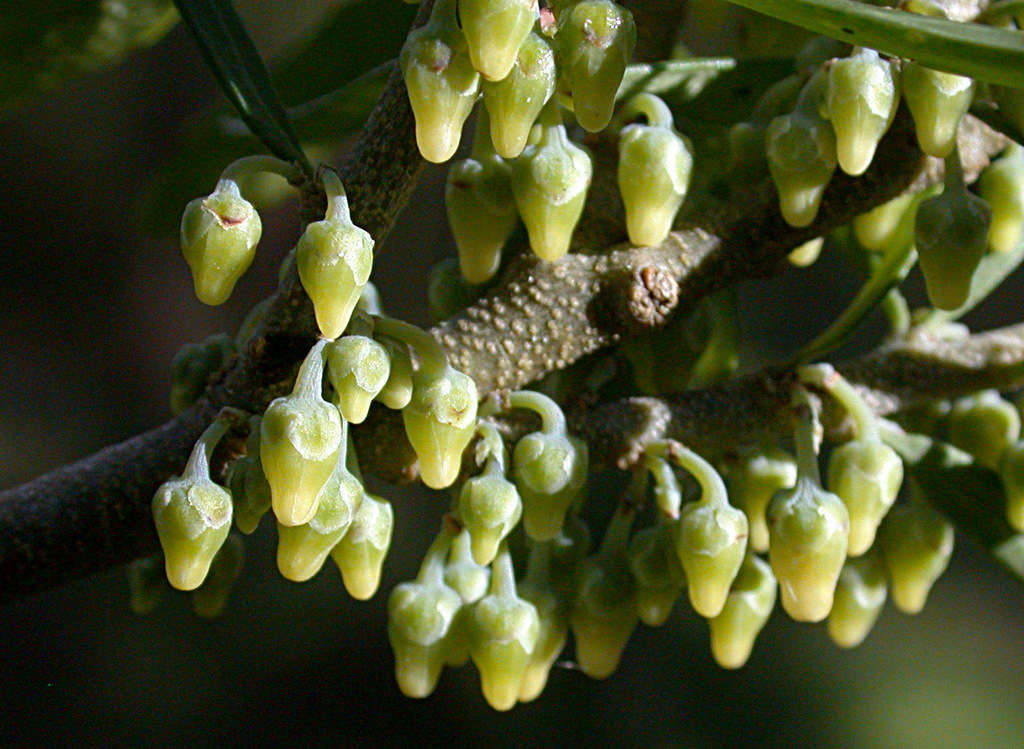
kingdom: Plantae
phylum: Tracheophyta
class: Magnoliopsida
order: Malpighiales
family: Violaceae
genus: Melicytus
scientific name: Melicytus dentatus
